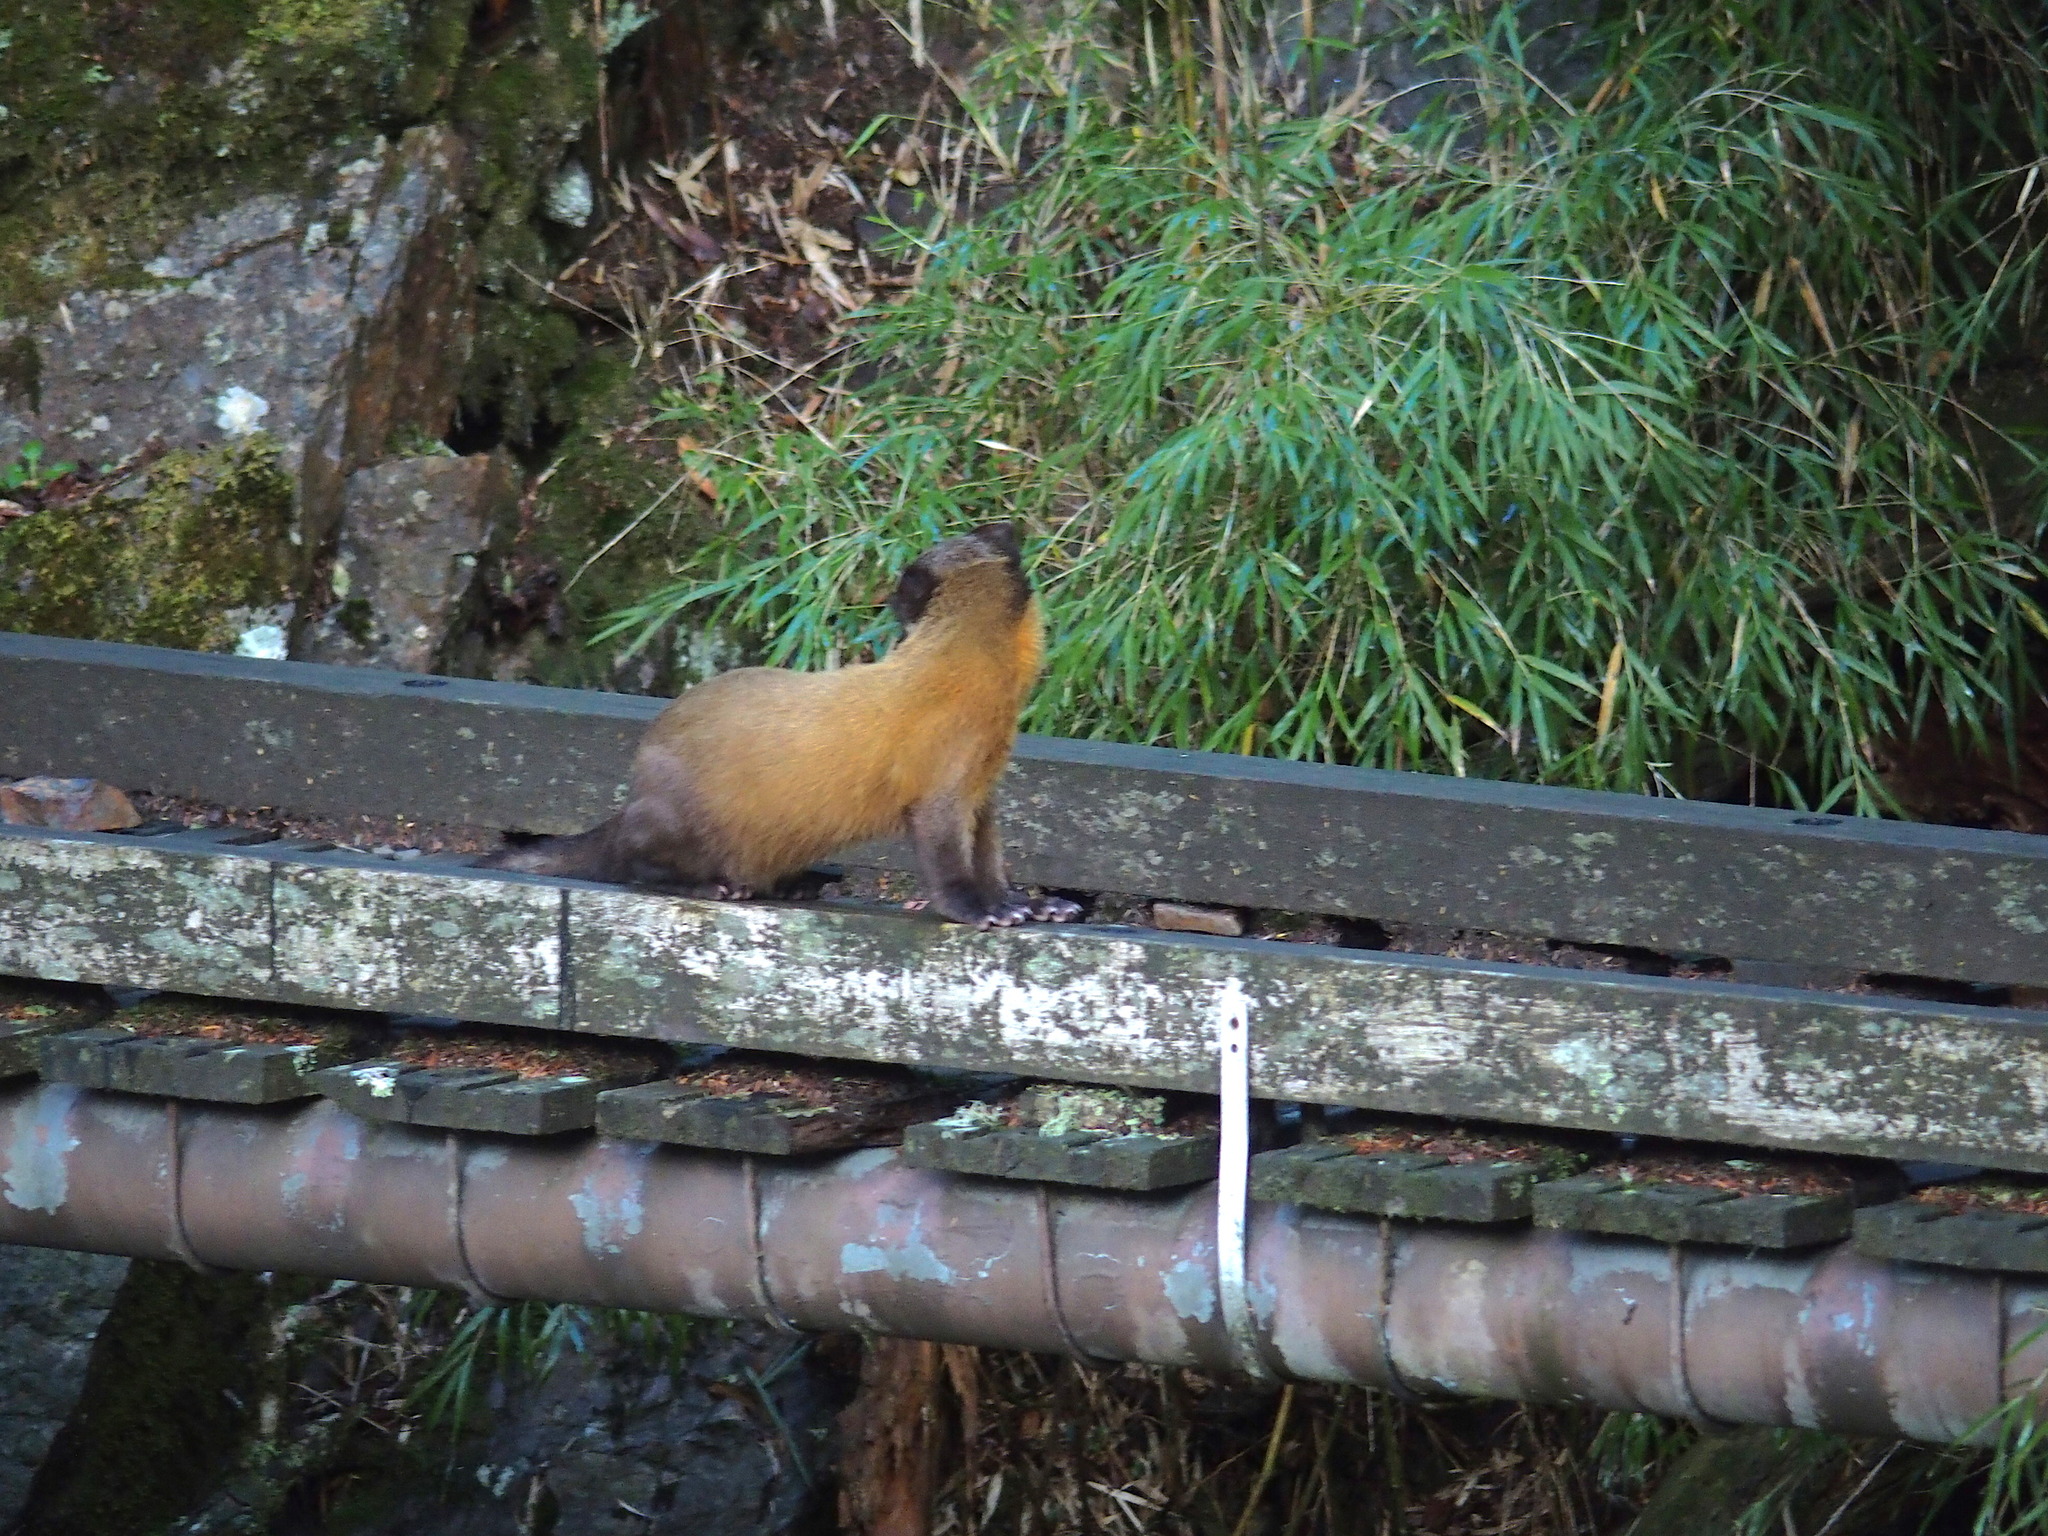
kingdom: Animalia
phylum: Chordata
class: Mammalia
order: Carnivora
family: Mustelidae
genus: Martes
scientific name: Martes flavigula
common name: Yellow-throated marten
